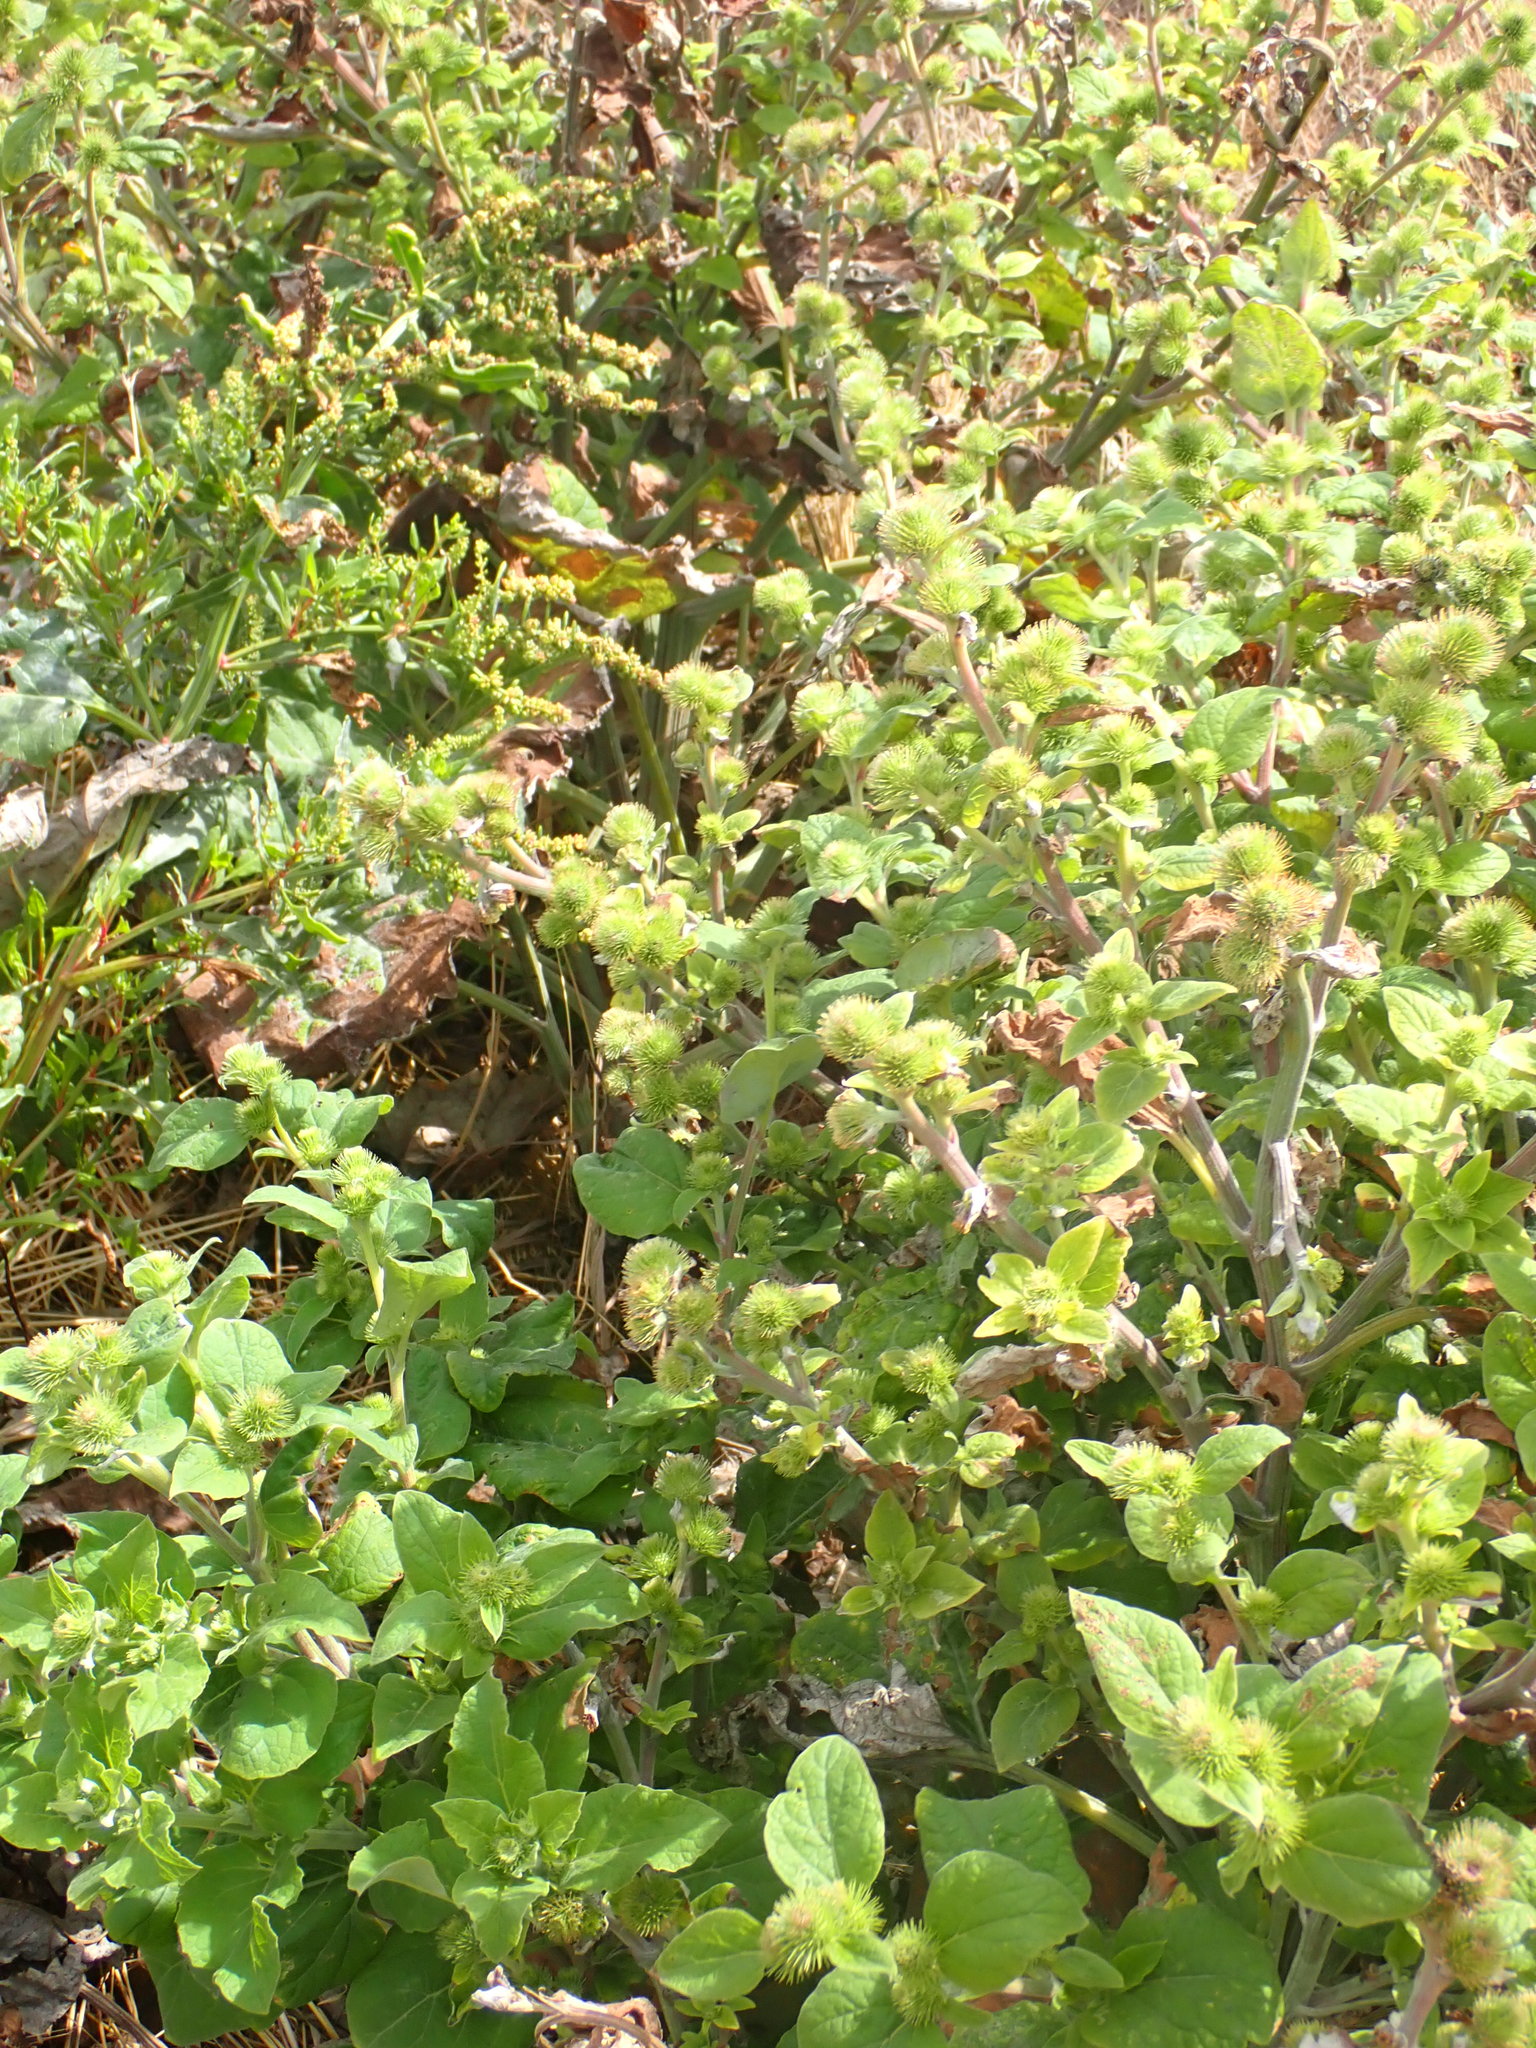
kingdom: Plantae
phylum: Tracheophyta
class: Magnoliopsida
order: Asterales
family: Asteraceae
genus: Arctium
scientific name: Arctium minus
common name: Lesser burdock
